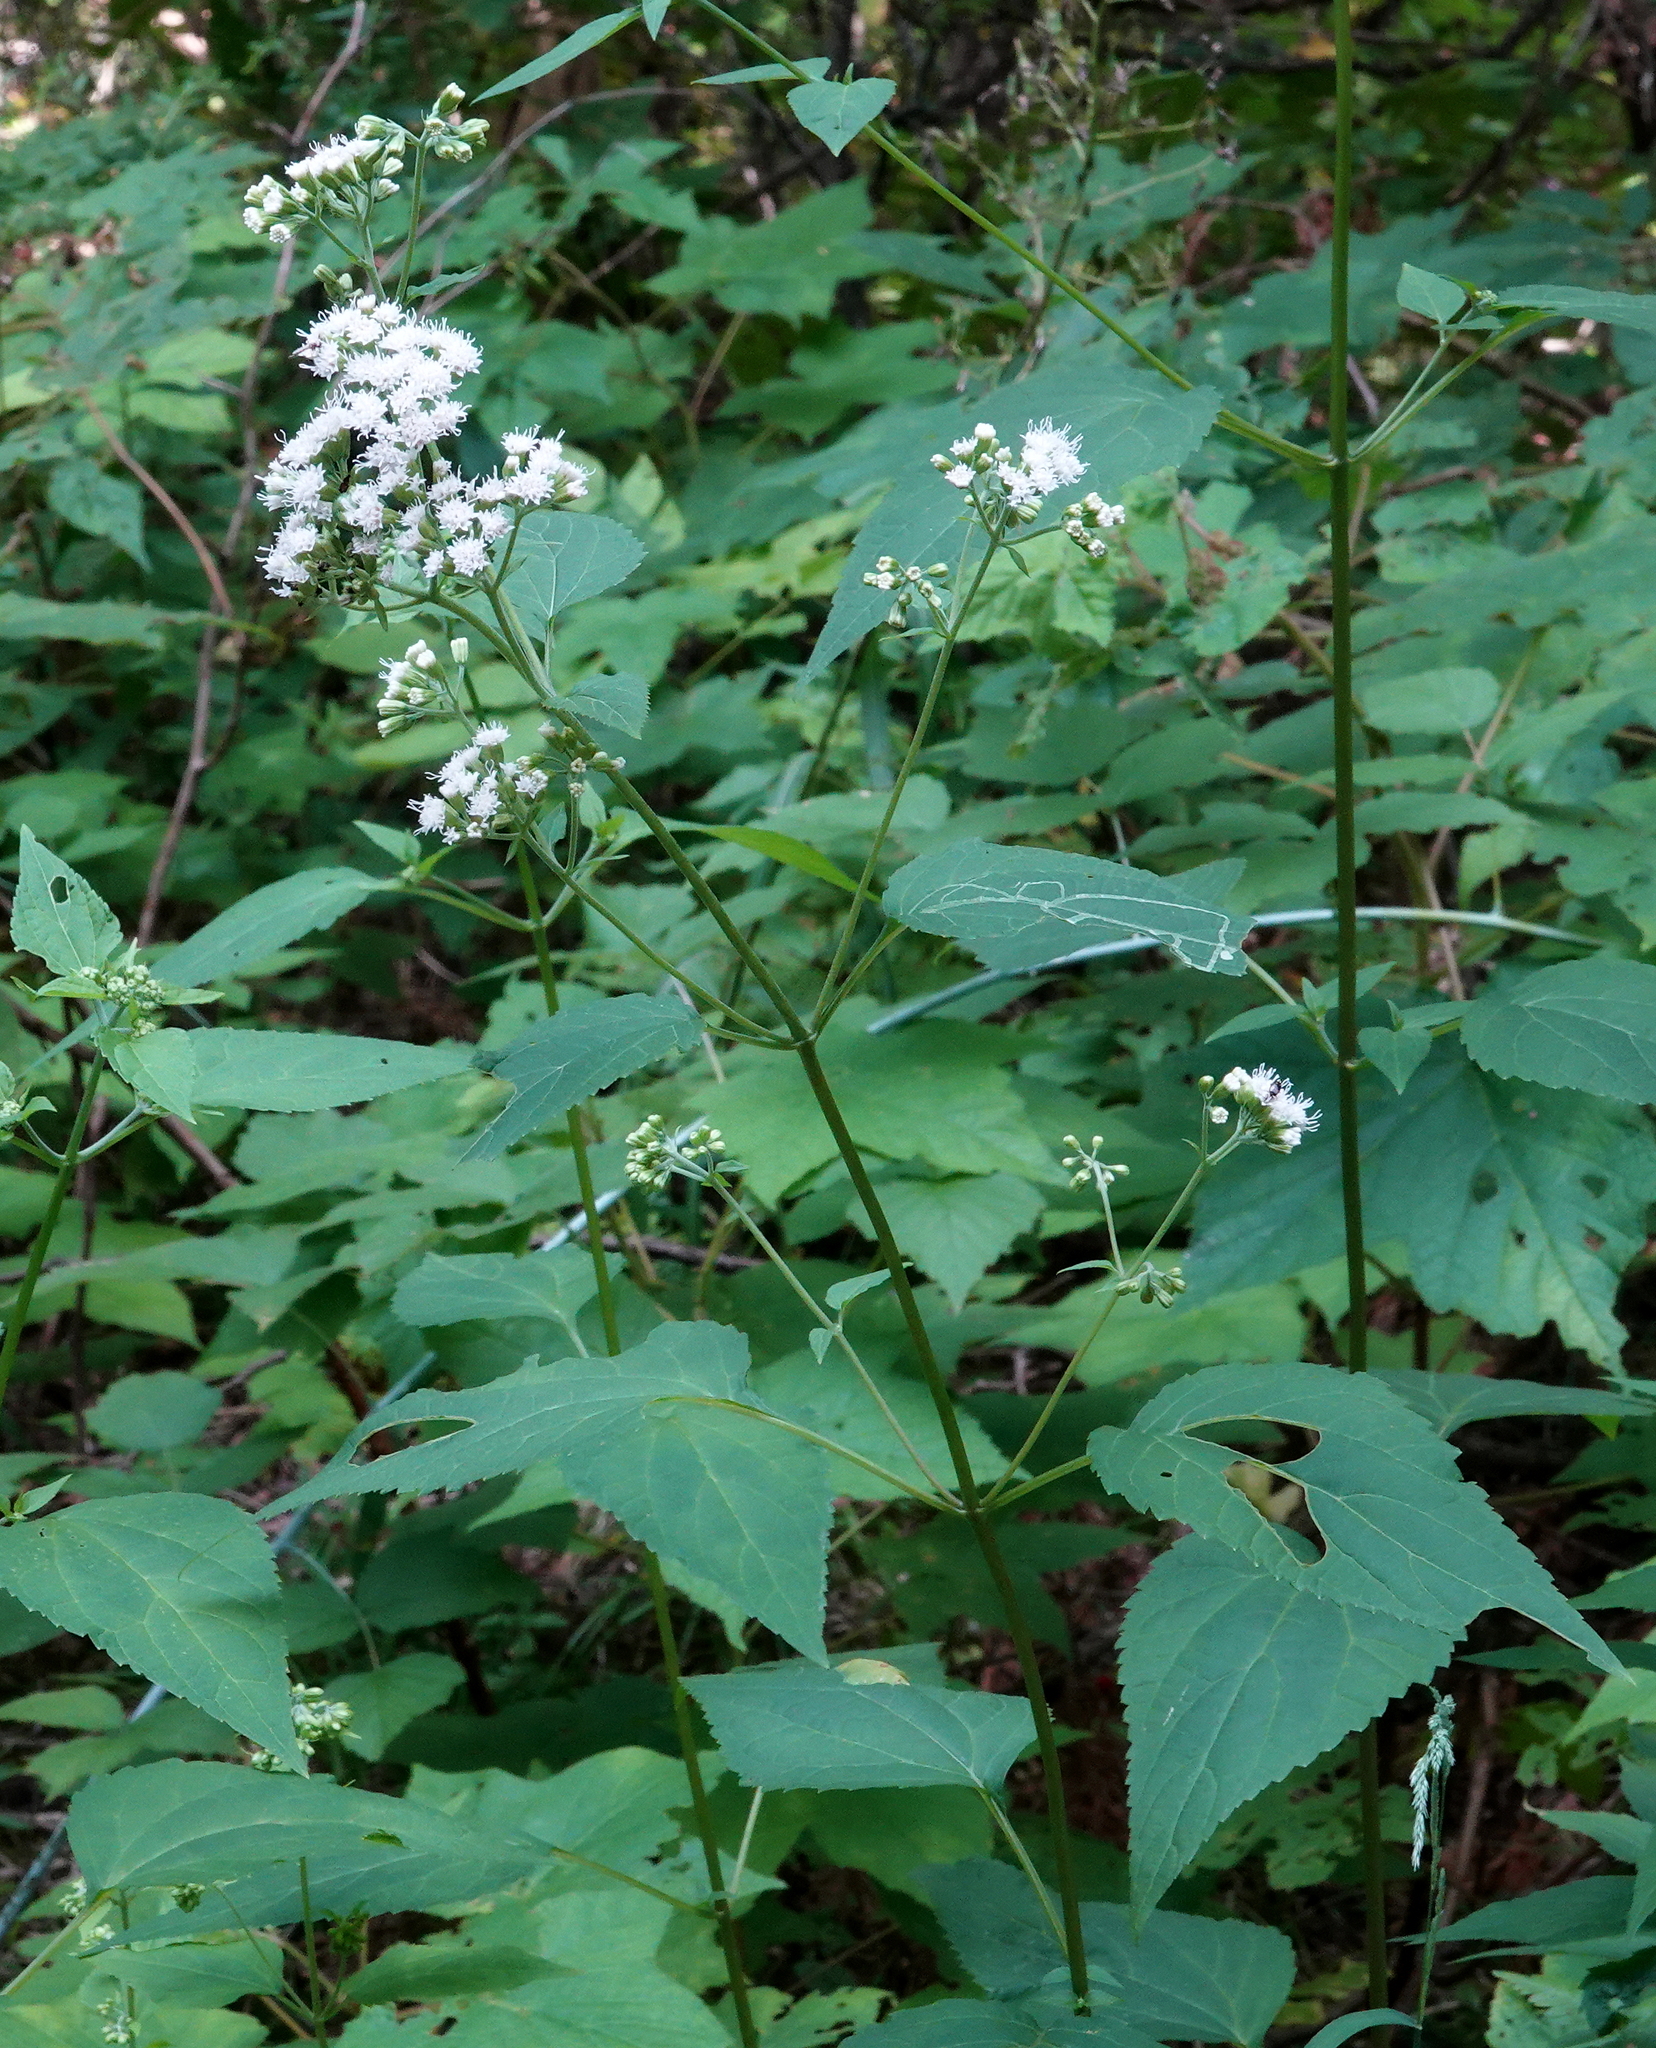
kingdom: Plantae
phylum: Tracheophyta
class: Magnoliopsida
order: Asterales
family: Asteraceae
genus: Ageratina
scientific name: Ageratina altissima
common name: White snakeroot
